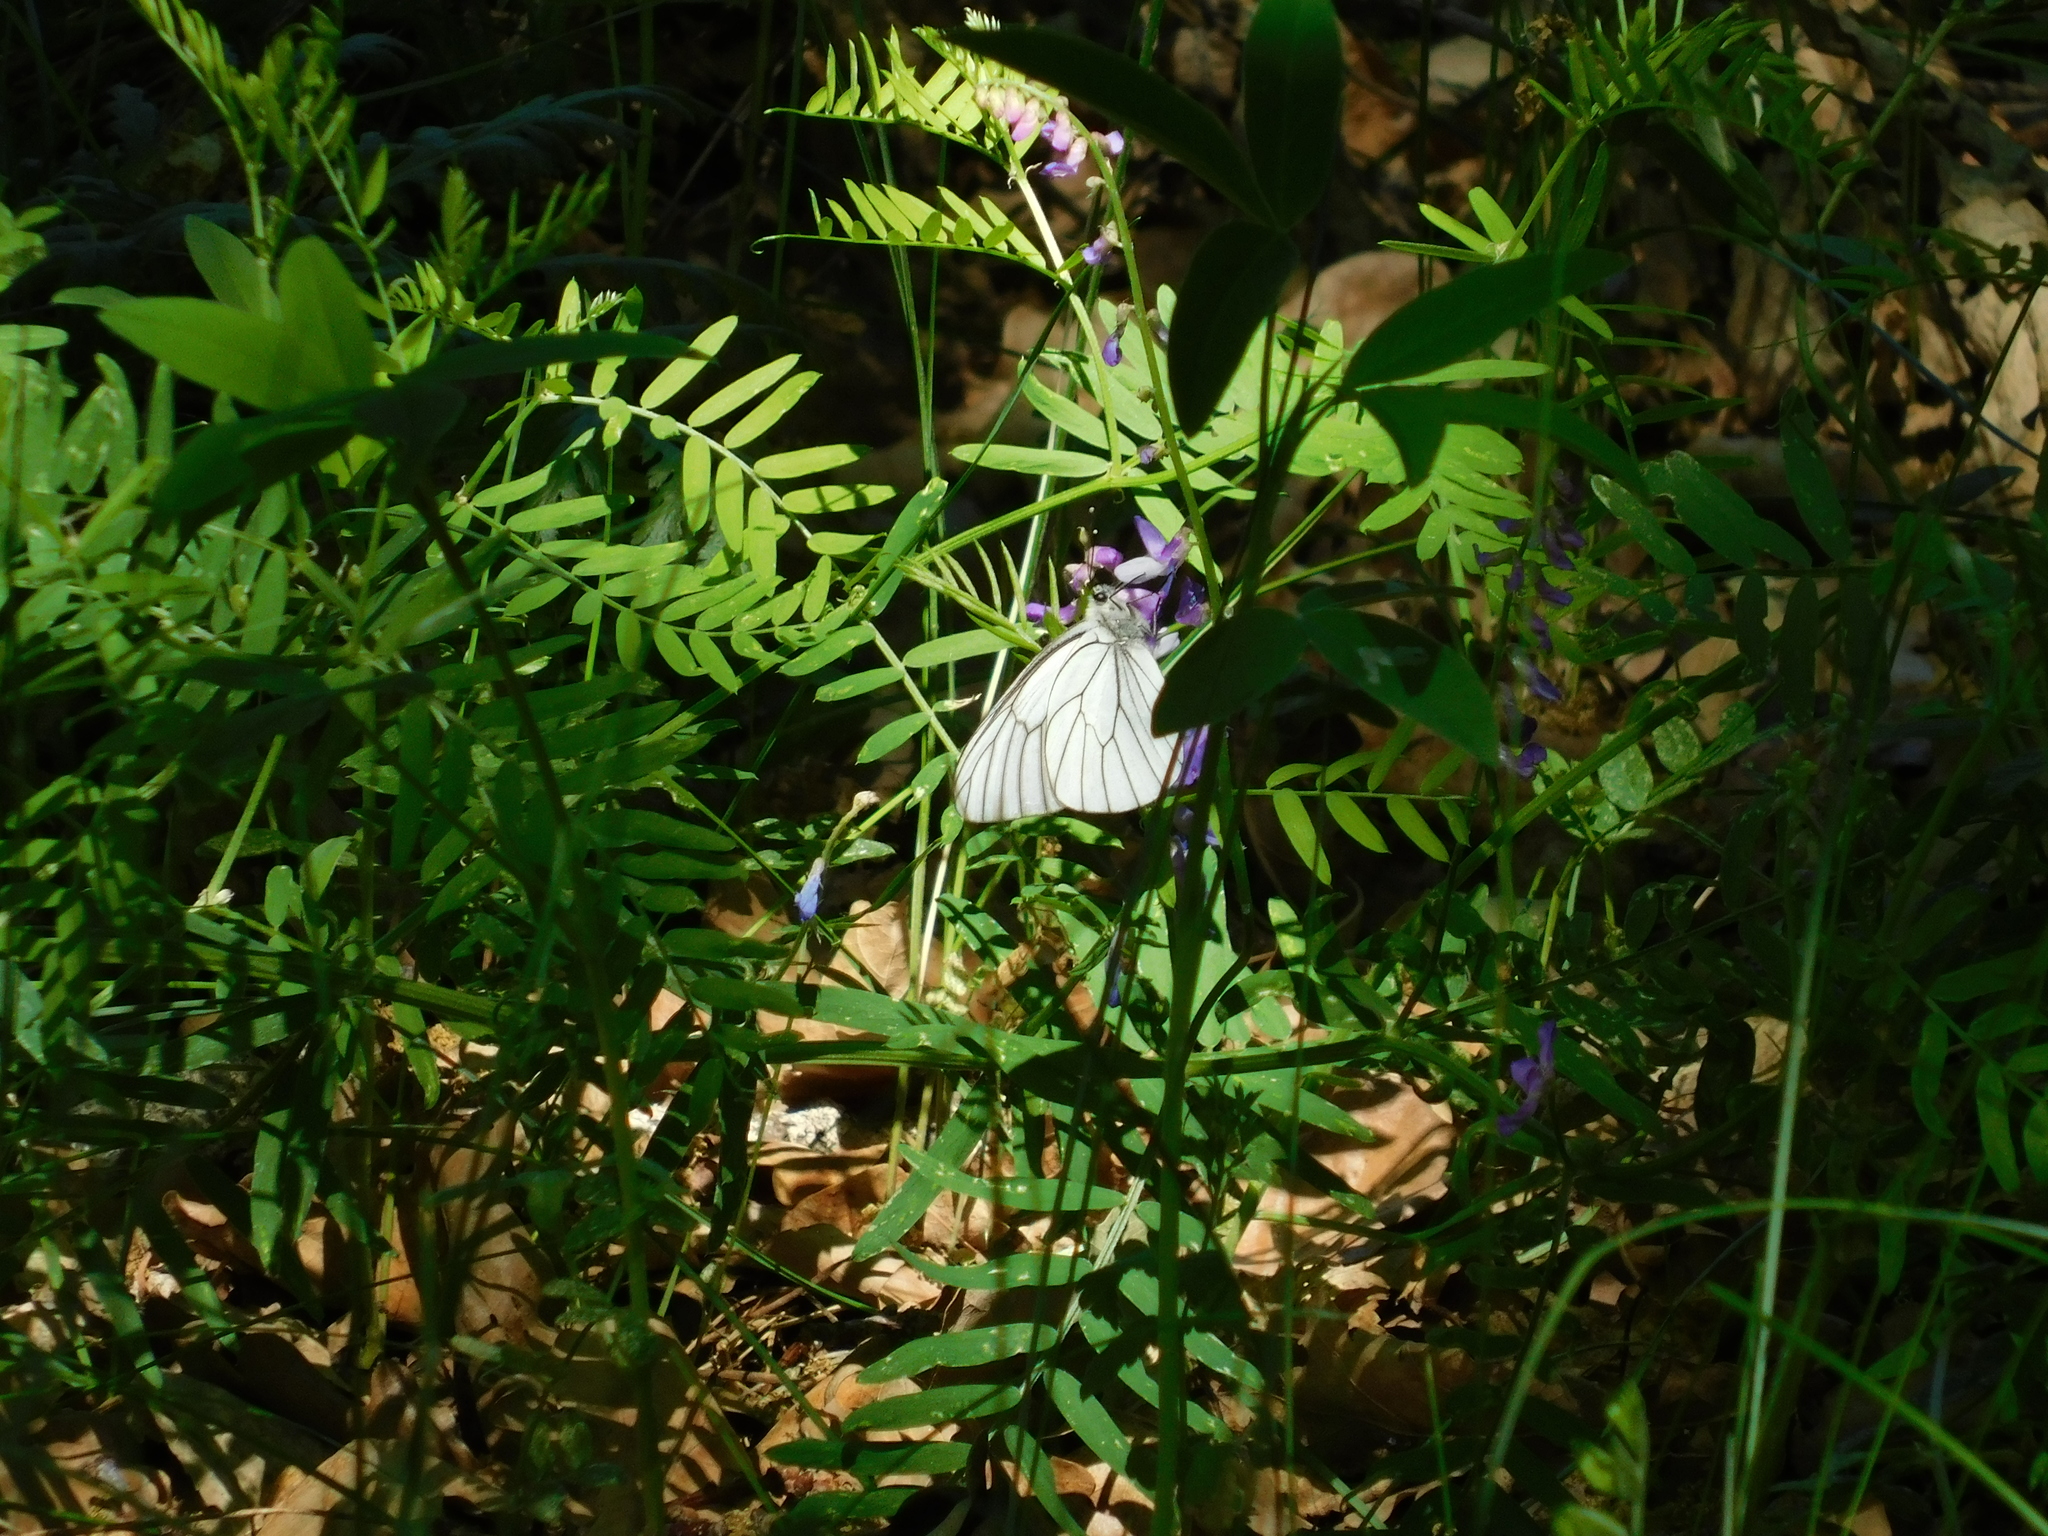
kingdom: Animalia
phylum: Arthropoda
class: Insecta
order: Lepidoptera
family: Pieridae
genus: Aporia
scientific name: Aporia crataegi
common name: Black-veined white
